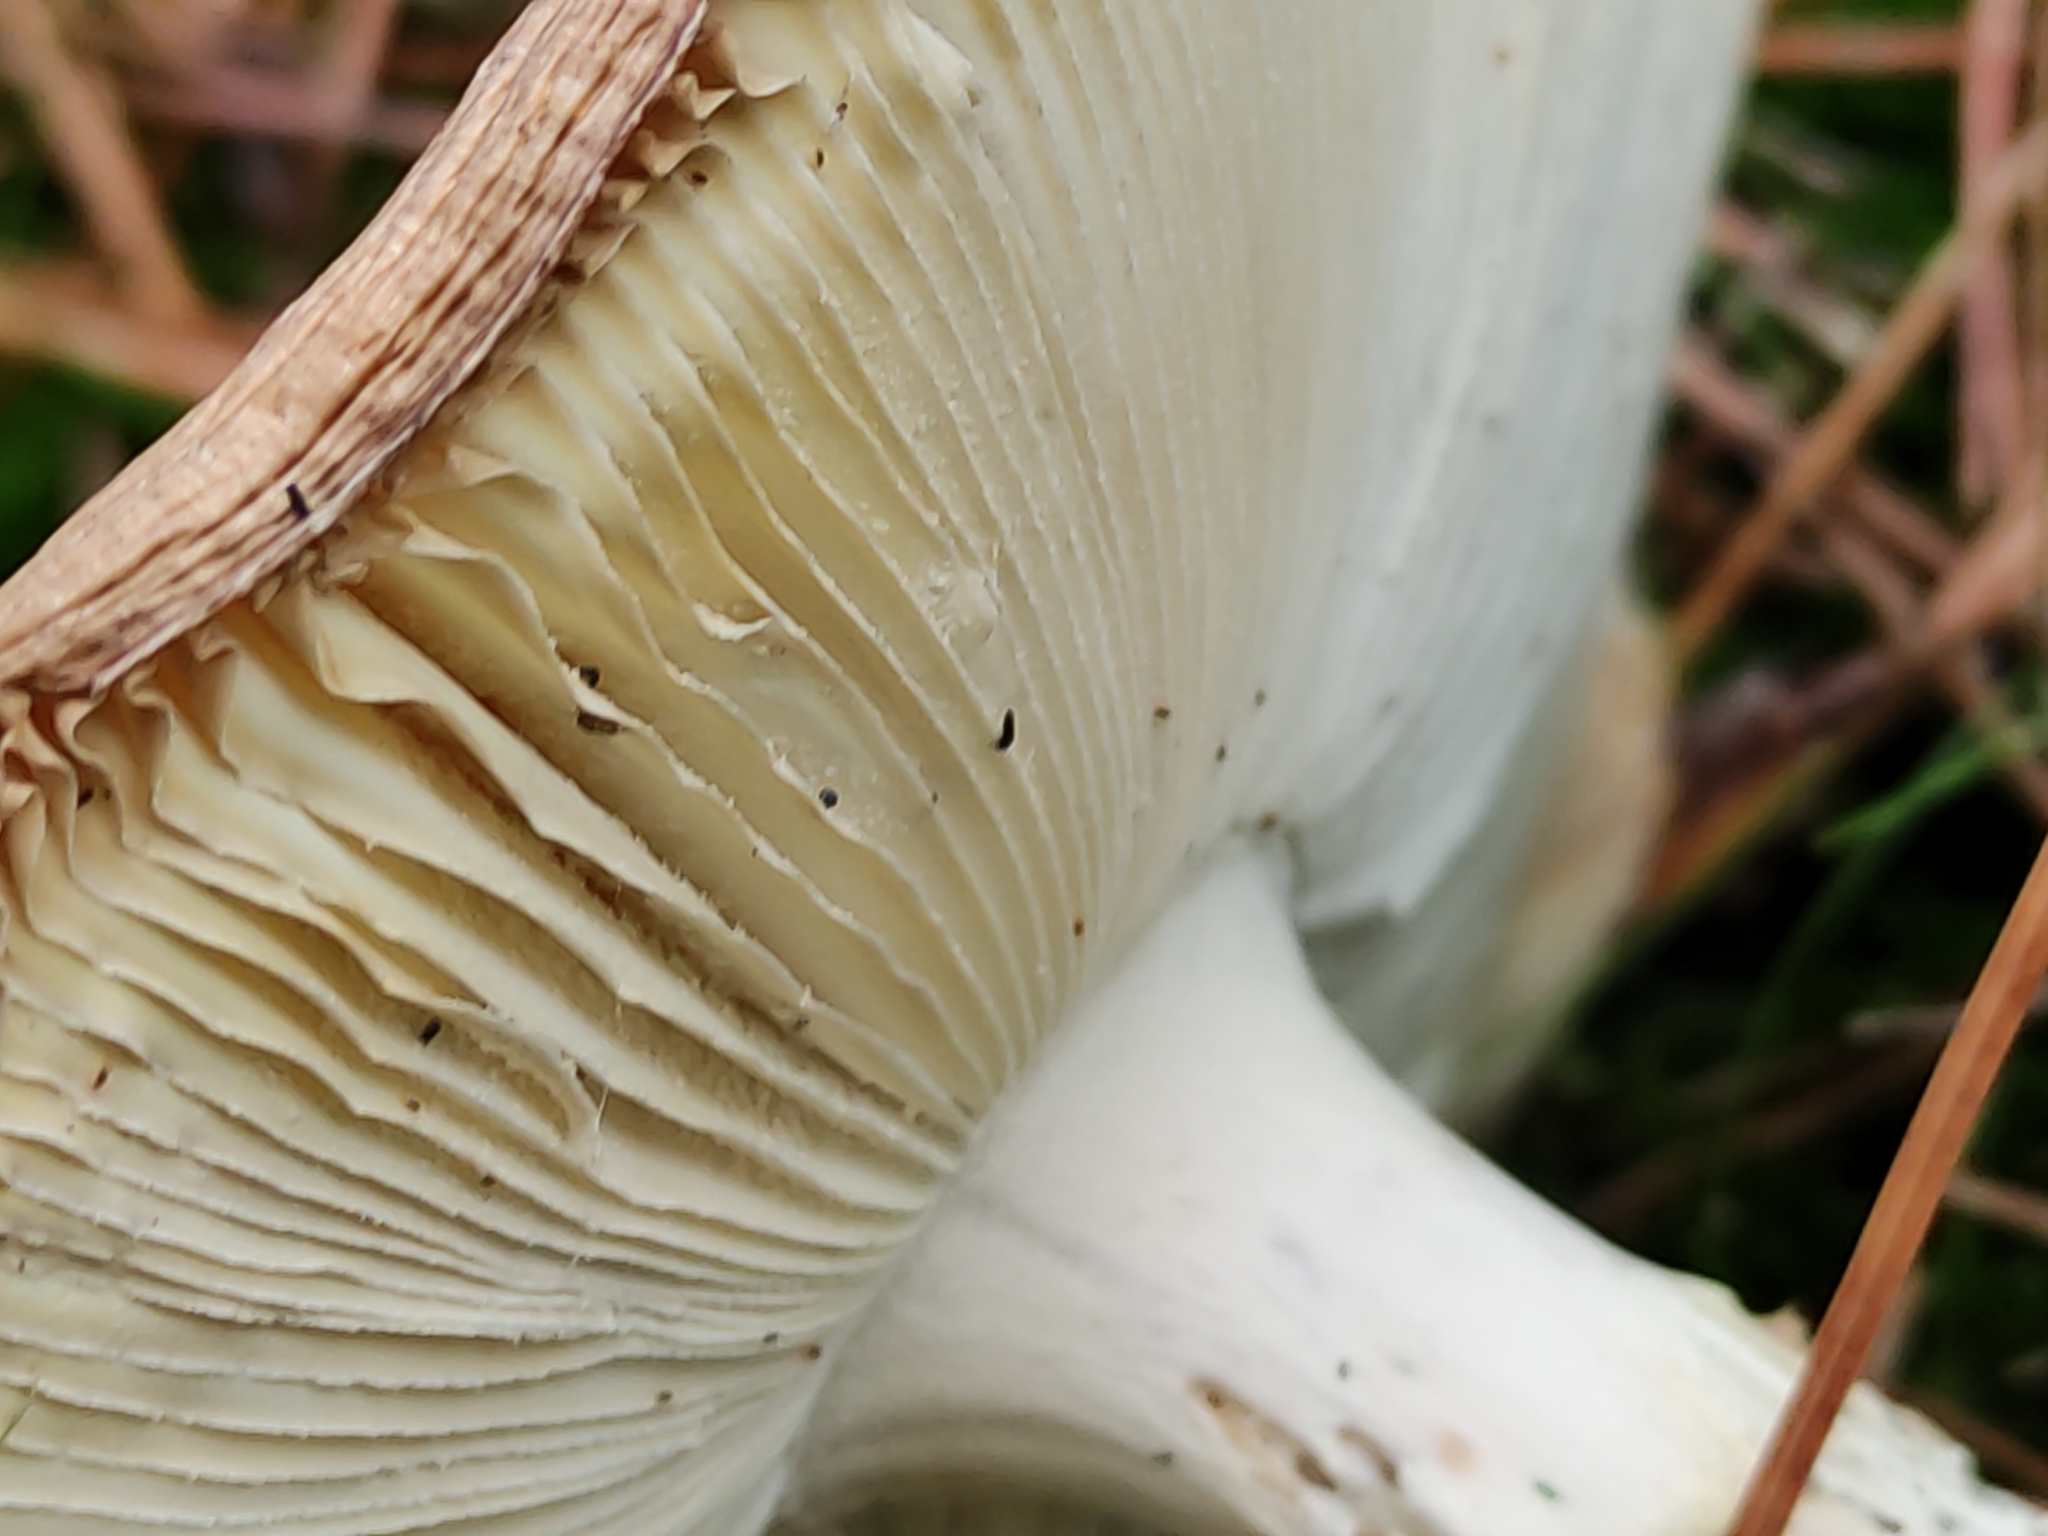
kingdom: Fungi
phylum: Basidiomycota
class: Agaricomycetes
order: Agaricales
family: Amanitaceae
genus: Amanita
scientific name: Amanita muscaria
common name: Fly agaric
